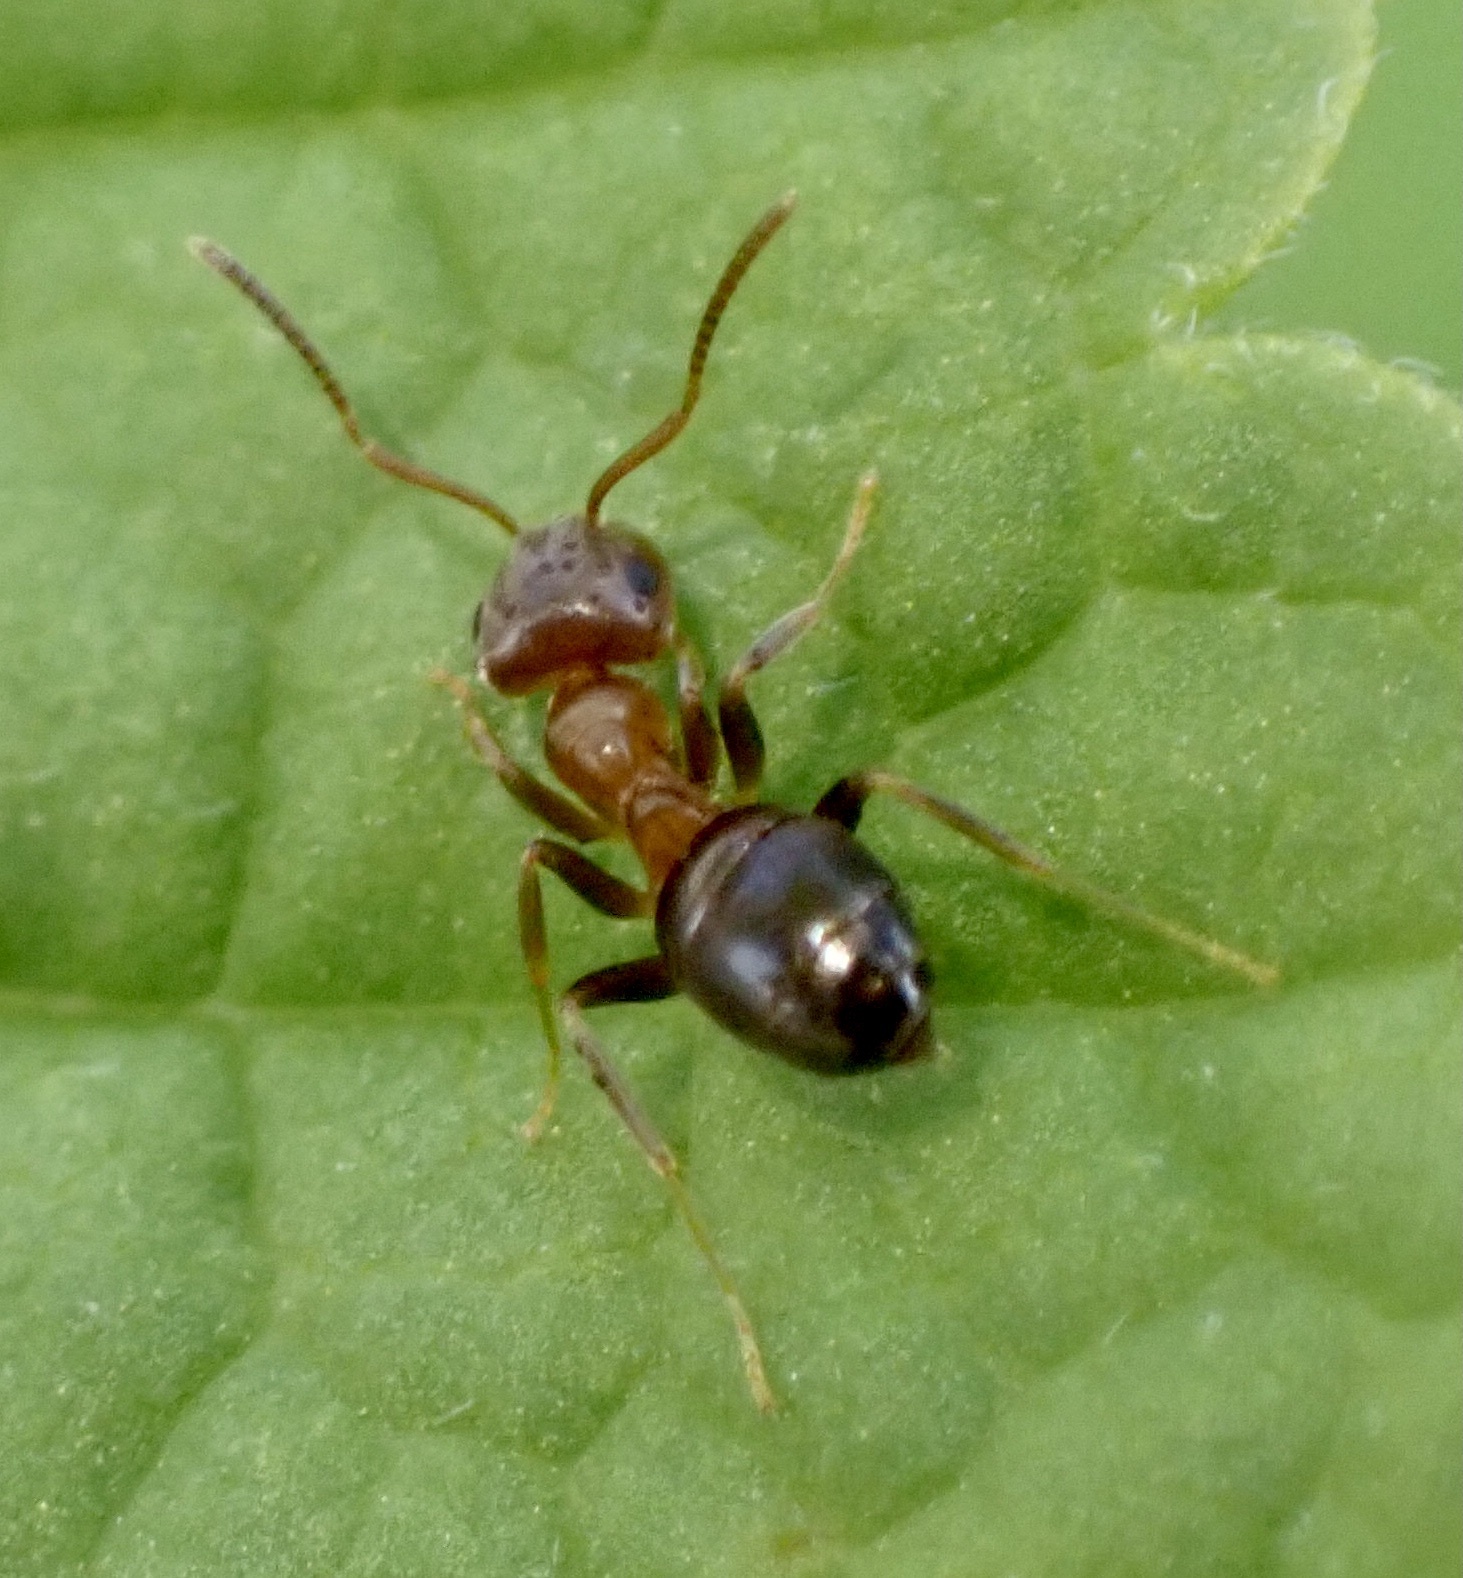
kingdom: Animalia
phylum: Arthropoda
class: Insecta
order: Hymenoptera
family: Formicidae
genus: Lasius
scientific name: Lasius brunneus
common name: Brown ant
